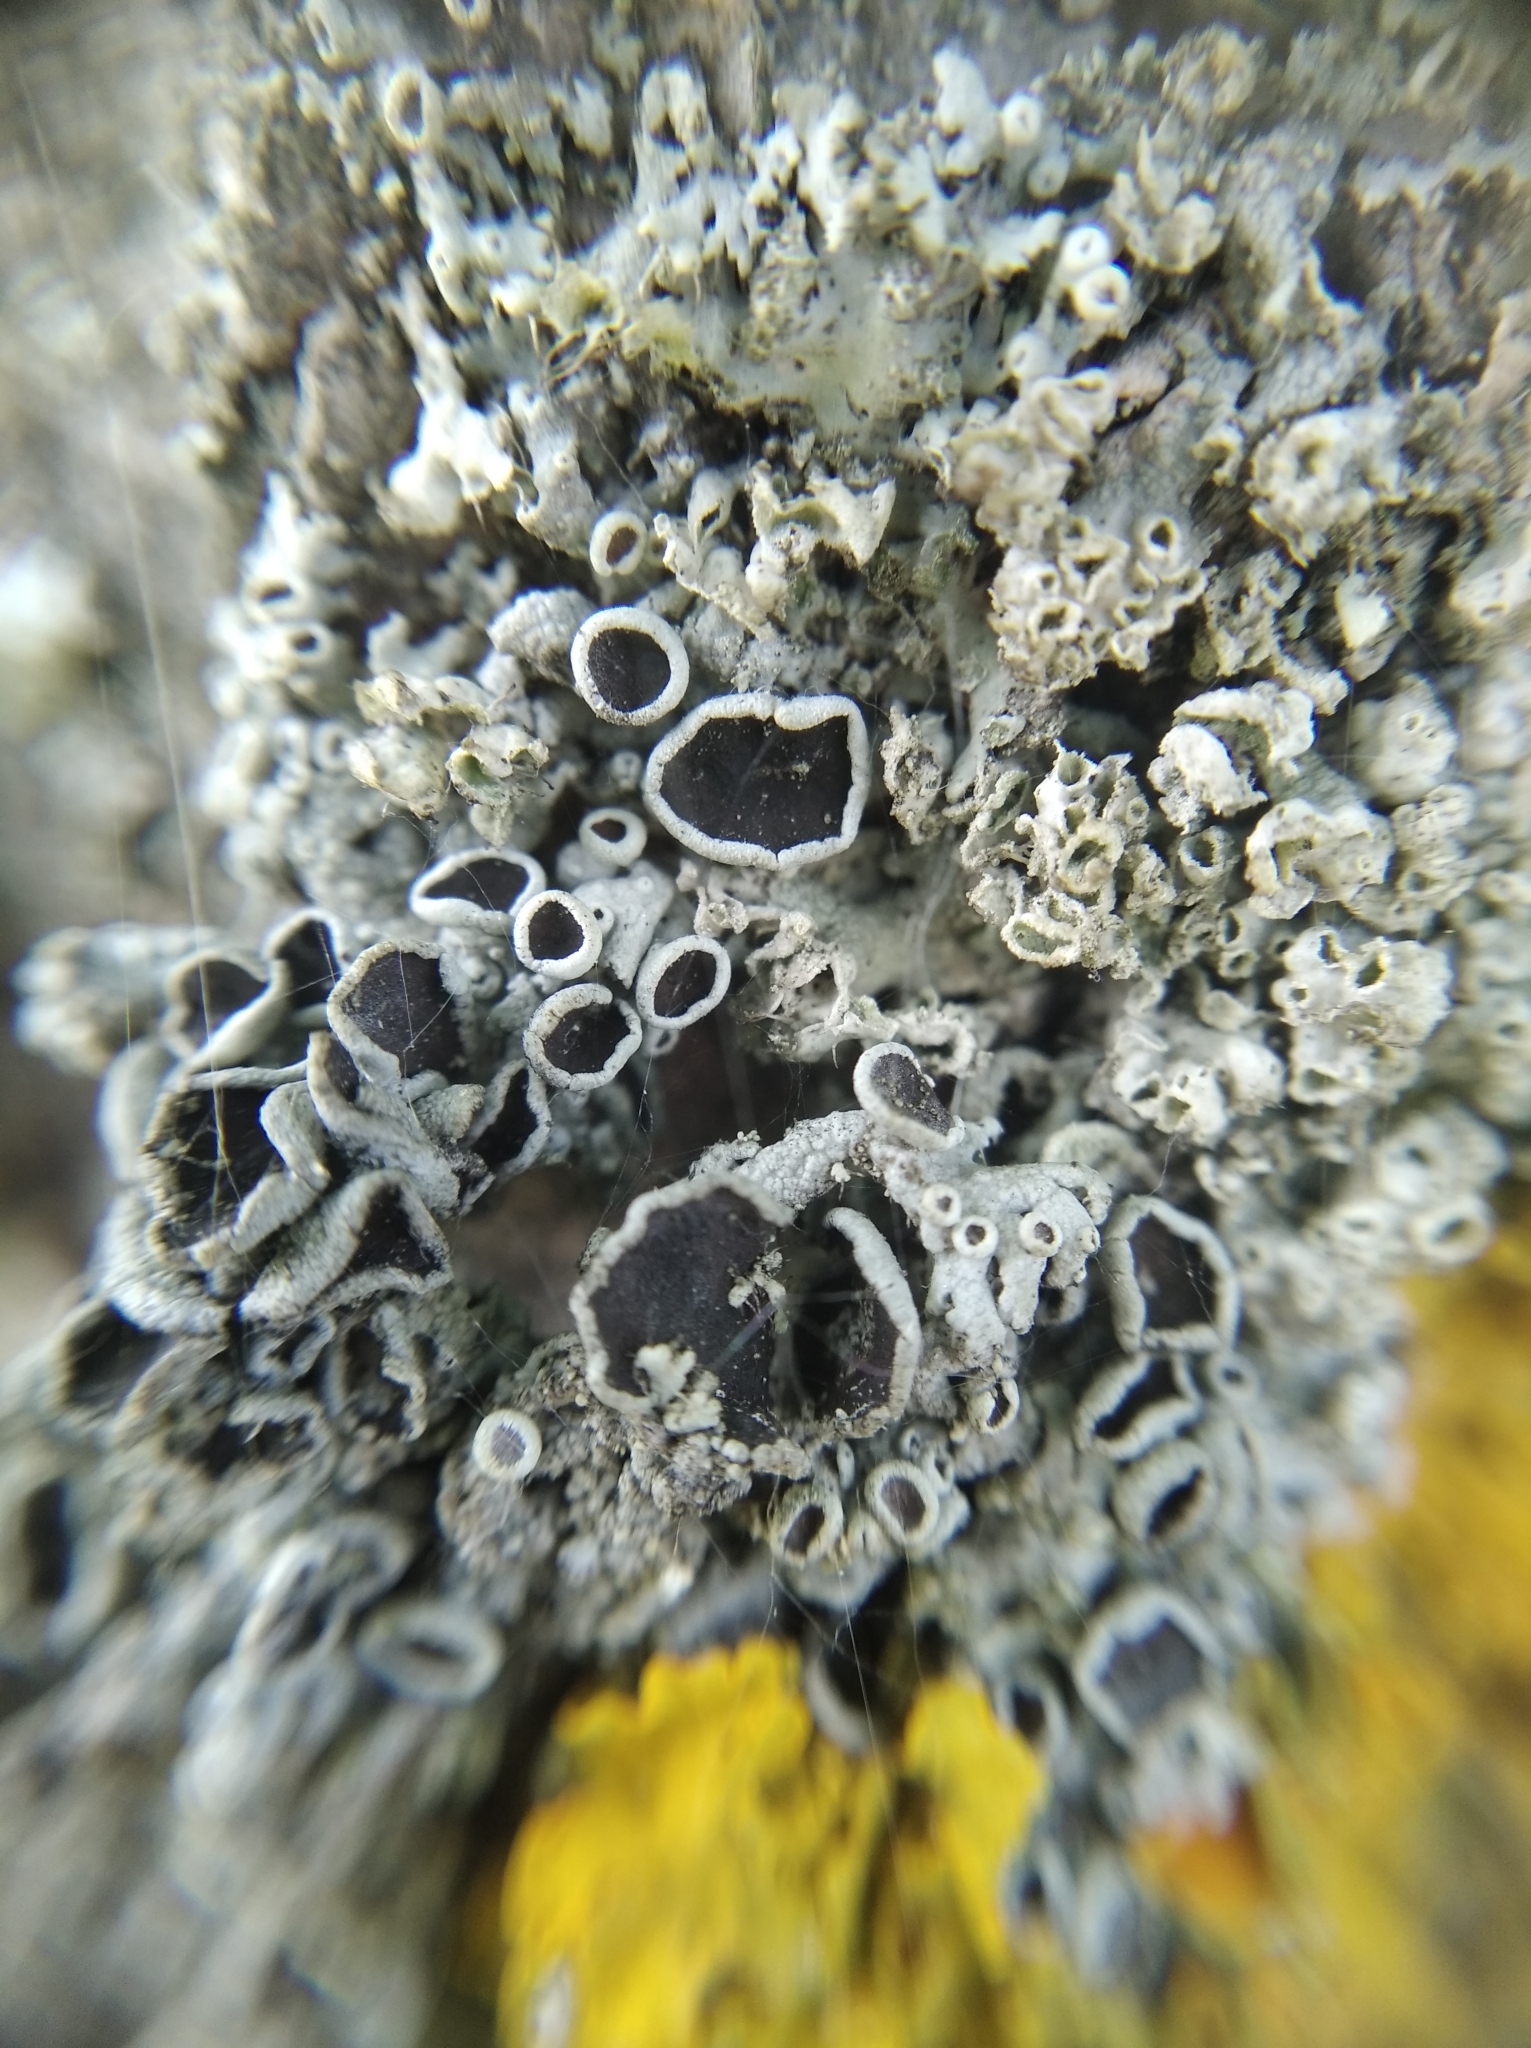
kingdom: Fungi
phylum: Ascomycota
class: Lecanoromycetes
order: Caliciales
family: Physciaceae
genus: Physcia
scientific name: Physcia stellaris
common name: Star rosette lichen
